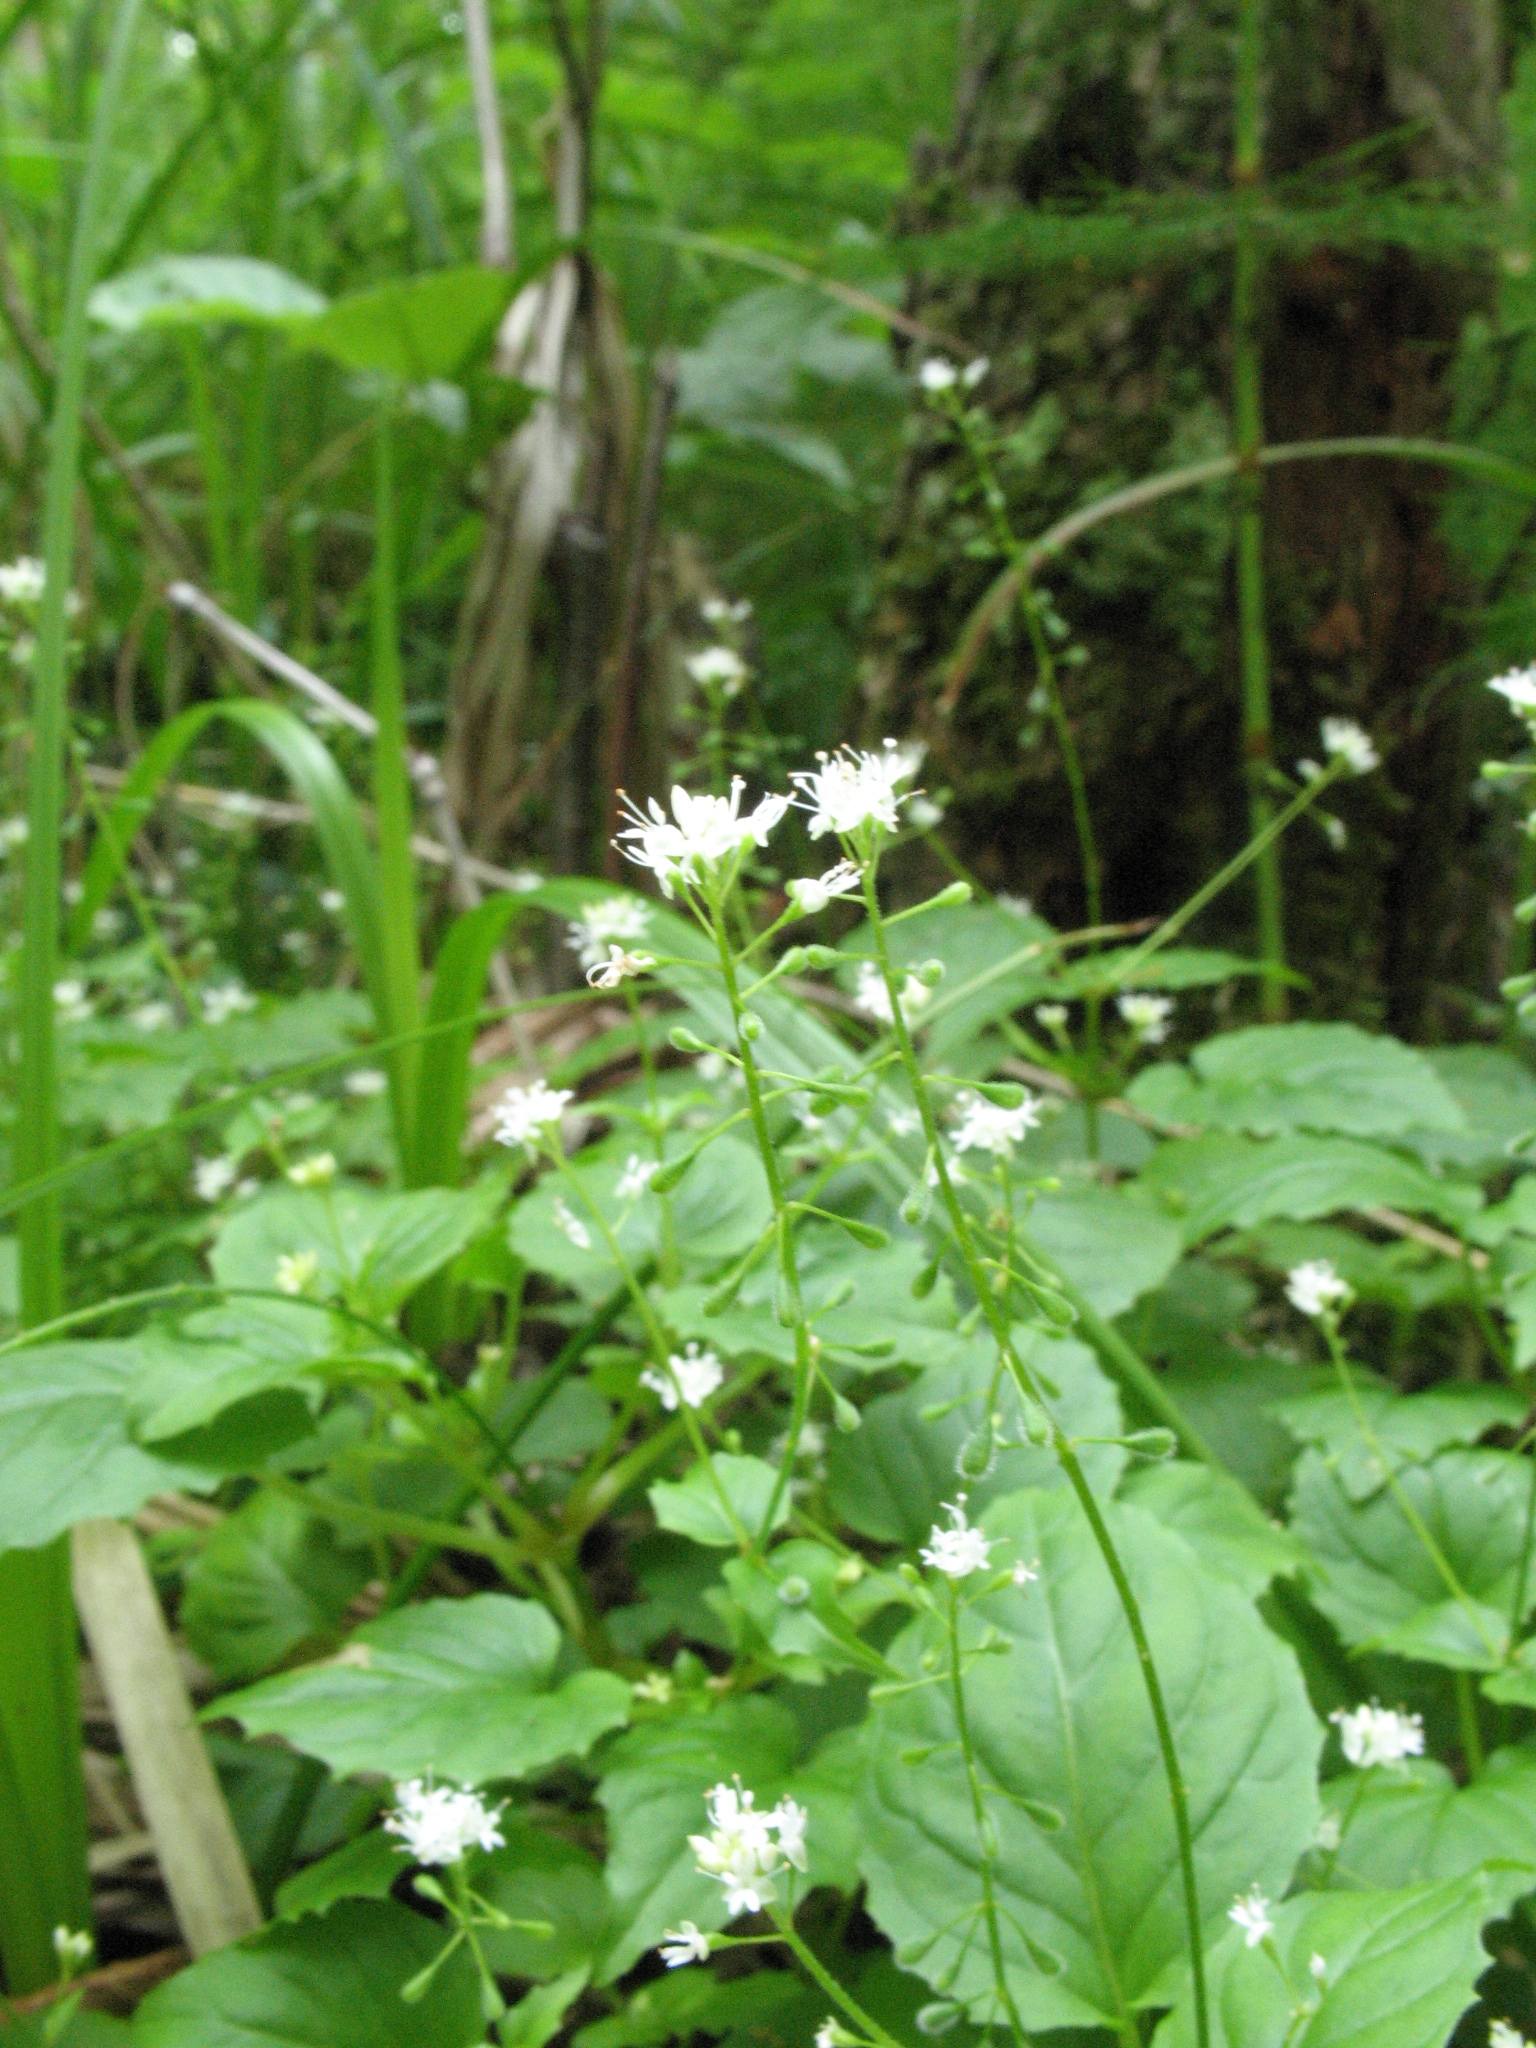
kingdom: Plantae
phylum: Tracheophyta
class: Magnoliopsida
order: Myrtales
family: Onagraceae
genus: Circaea
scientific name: Circaea alpina
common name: Alpine enchanter's-nightshade
